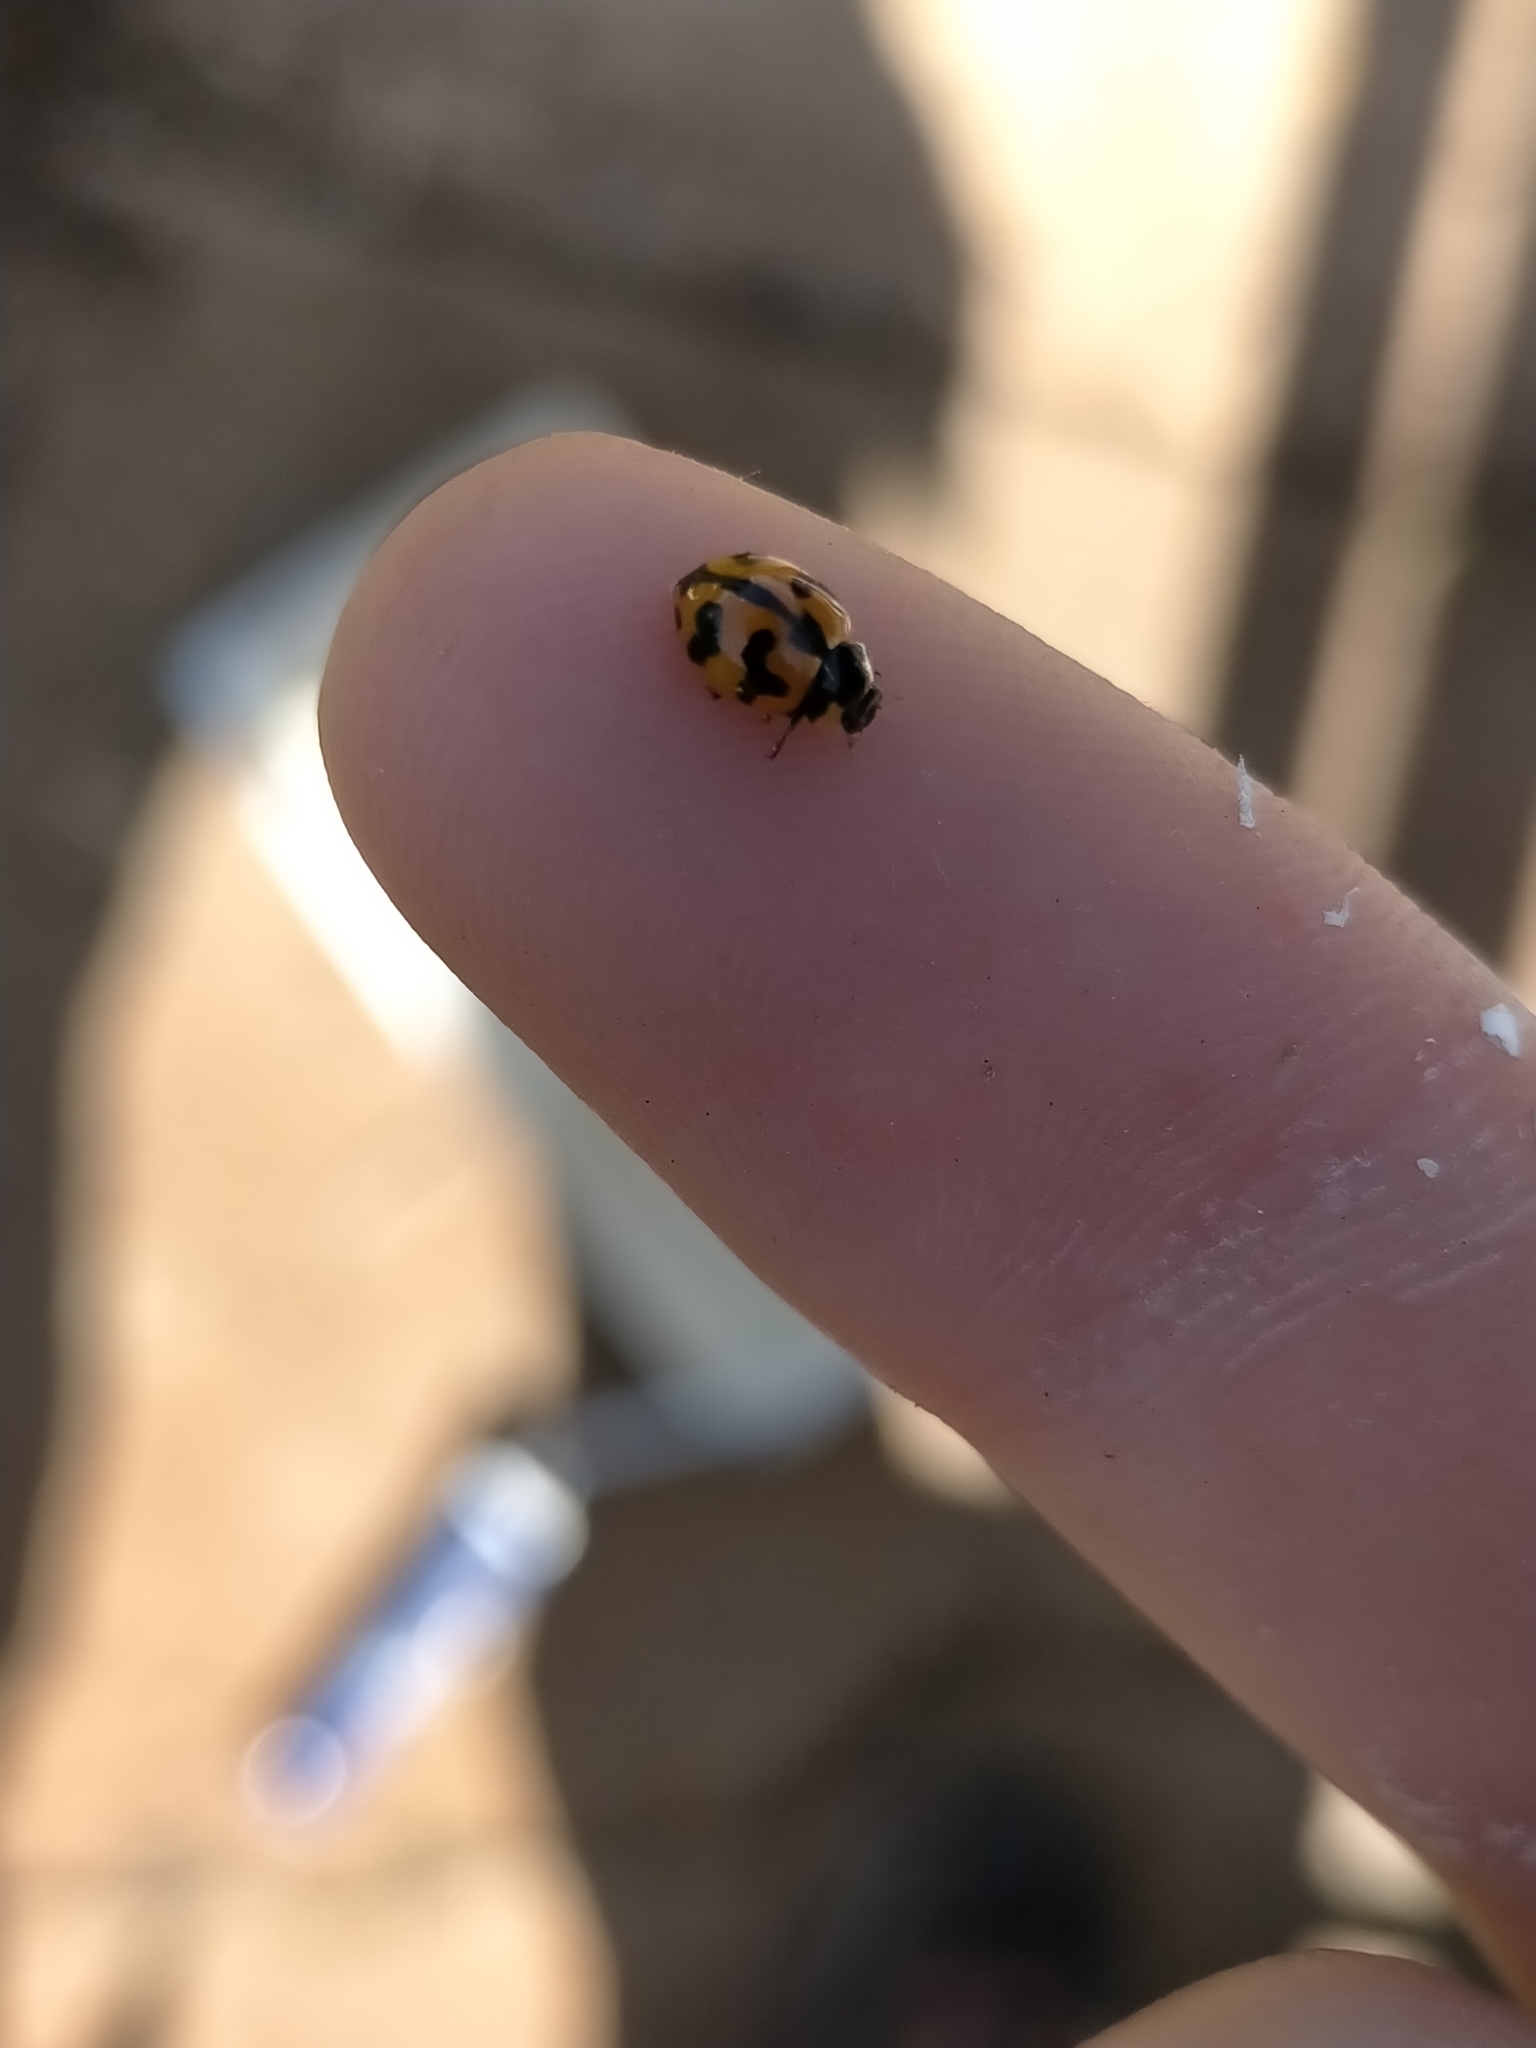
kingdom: Animalia
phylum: Arthropoda
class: Insecta
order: Coleoptera
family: Coccinellidae
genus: Coccinella
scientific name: Coccinella transversalis
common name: Transverse lady beetle
